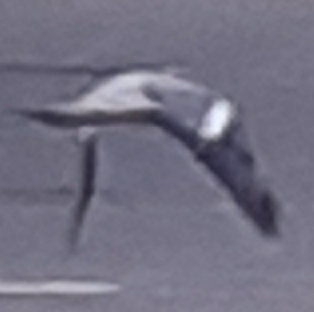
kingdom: Animalia
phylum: Chordata
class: Aves
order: Columbiformes
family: Columbidae
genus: Columba
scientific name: Columba palumbus
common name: Common wood pigeon
